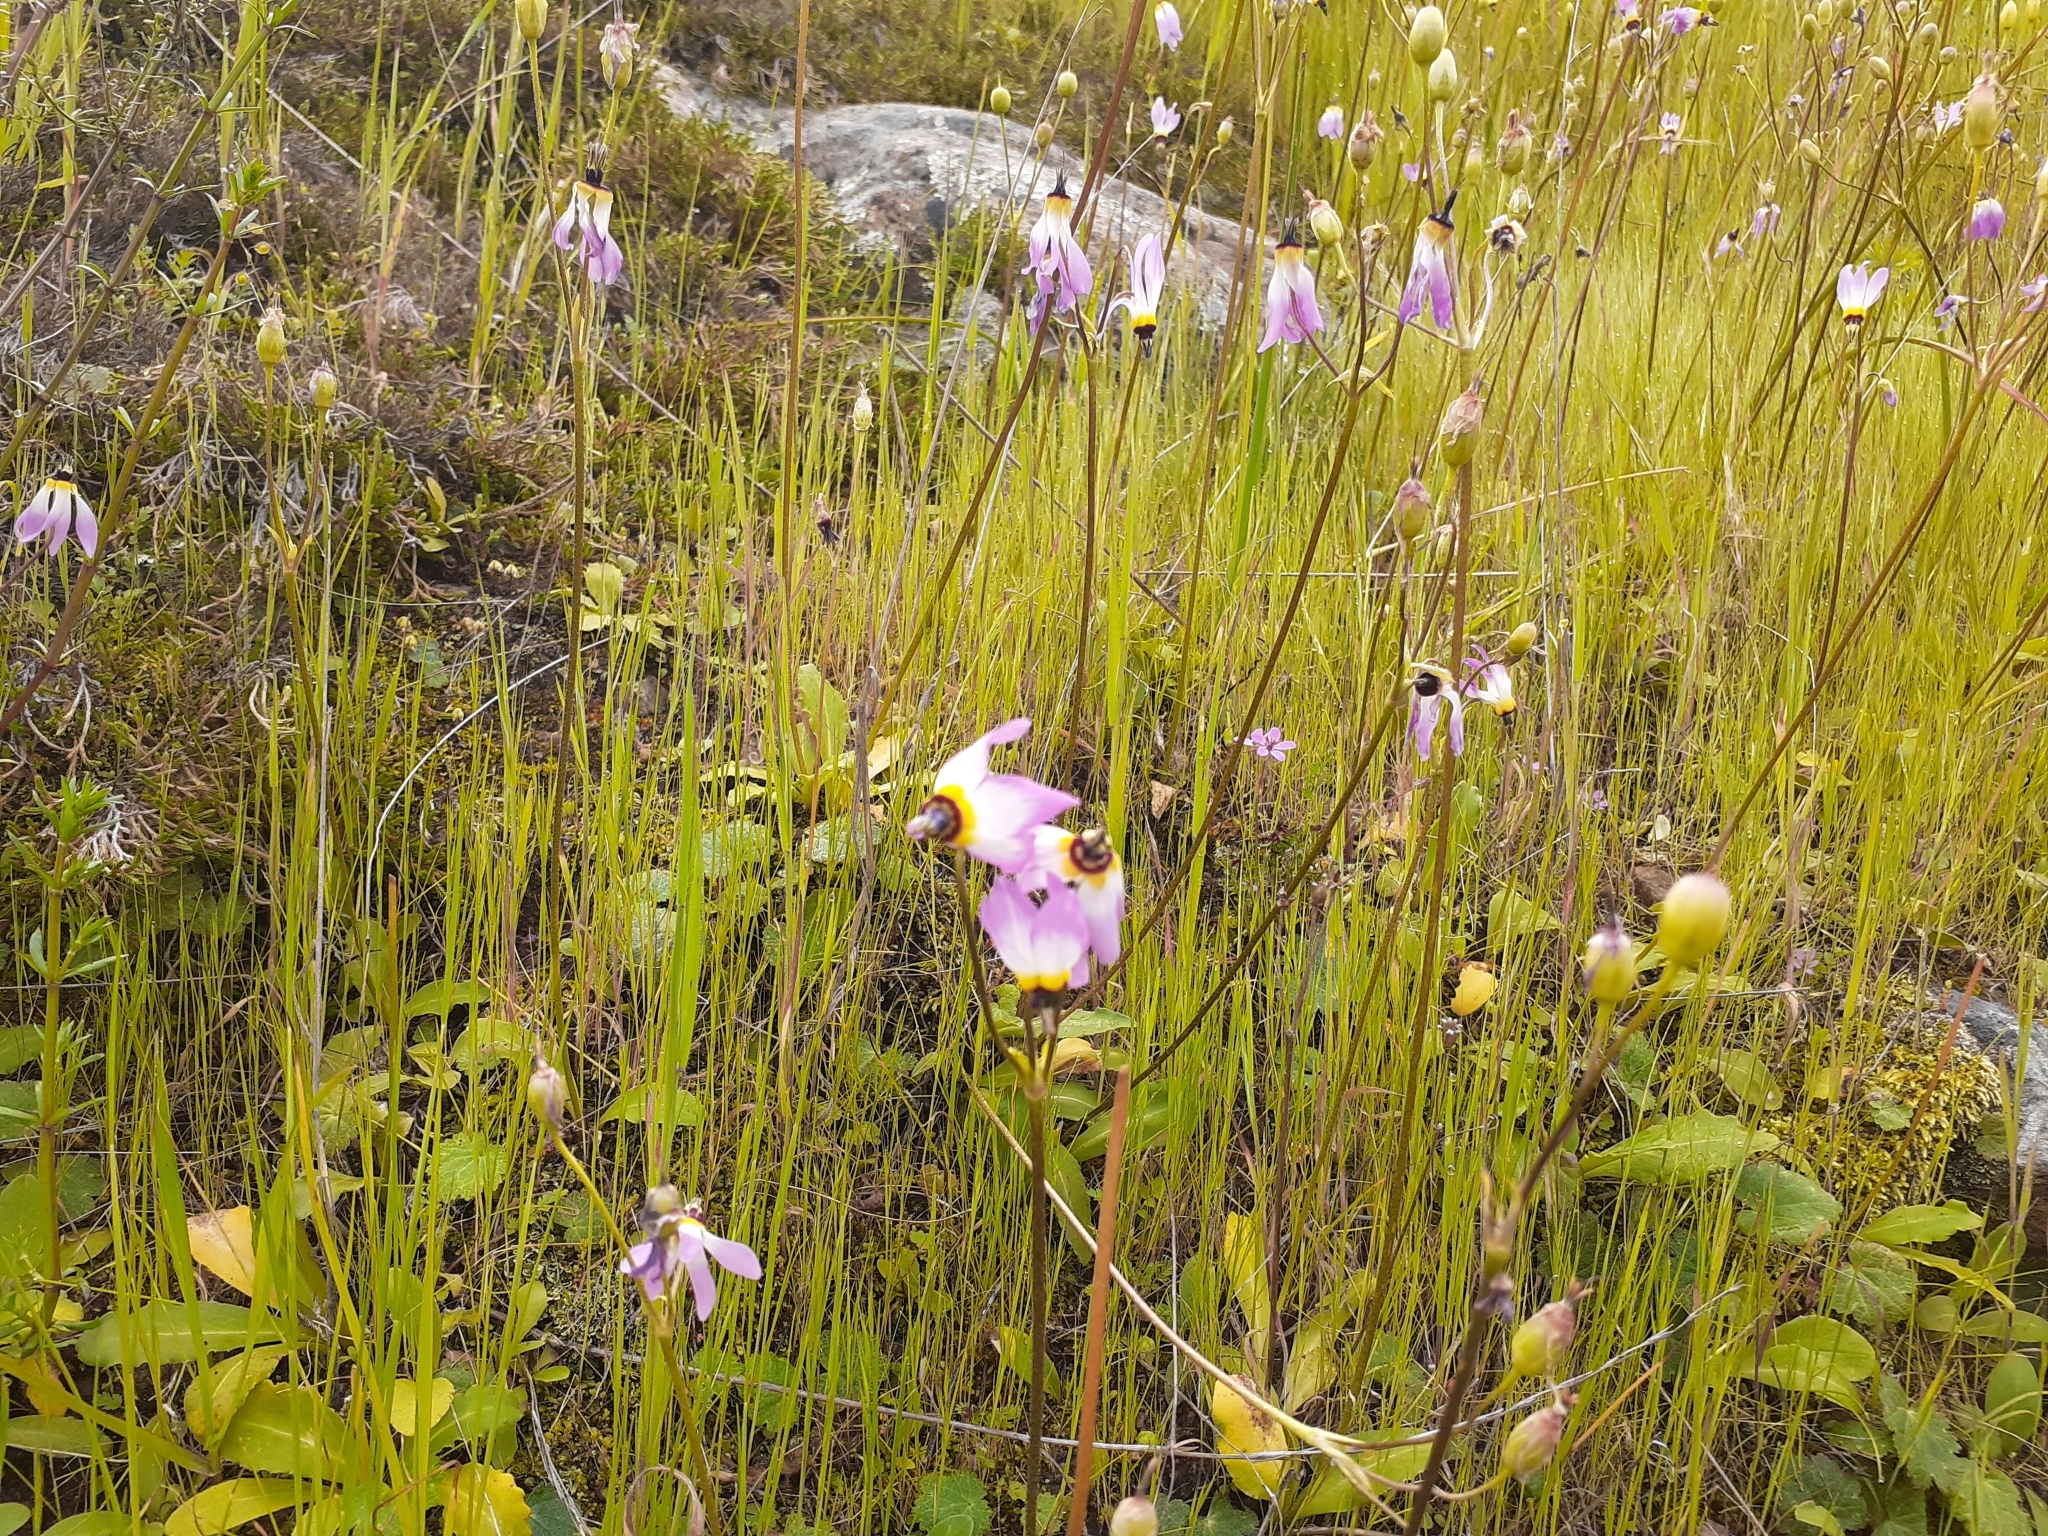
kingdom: Plantae
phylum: Tracheophyta
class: Magnoliopsida
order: Ericales
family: Primulaceae
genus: Dodecatheon
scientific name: Dodecatheon clevelandii
